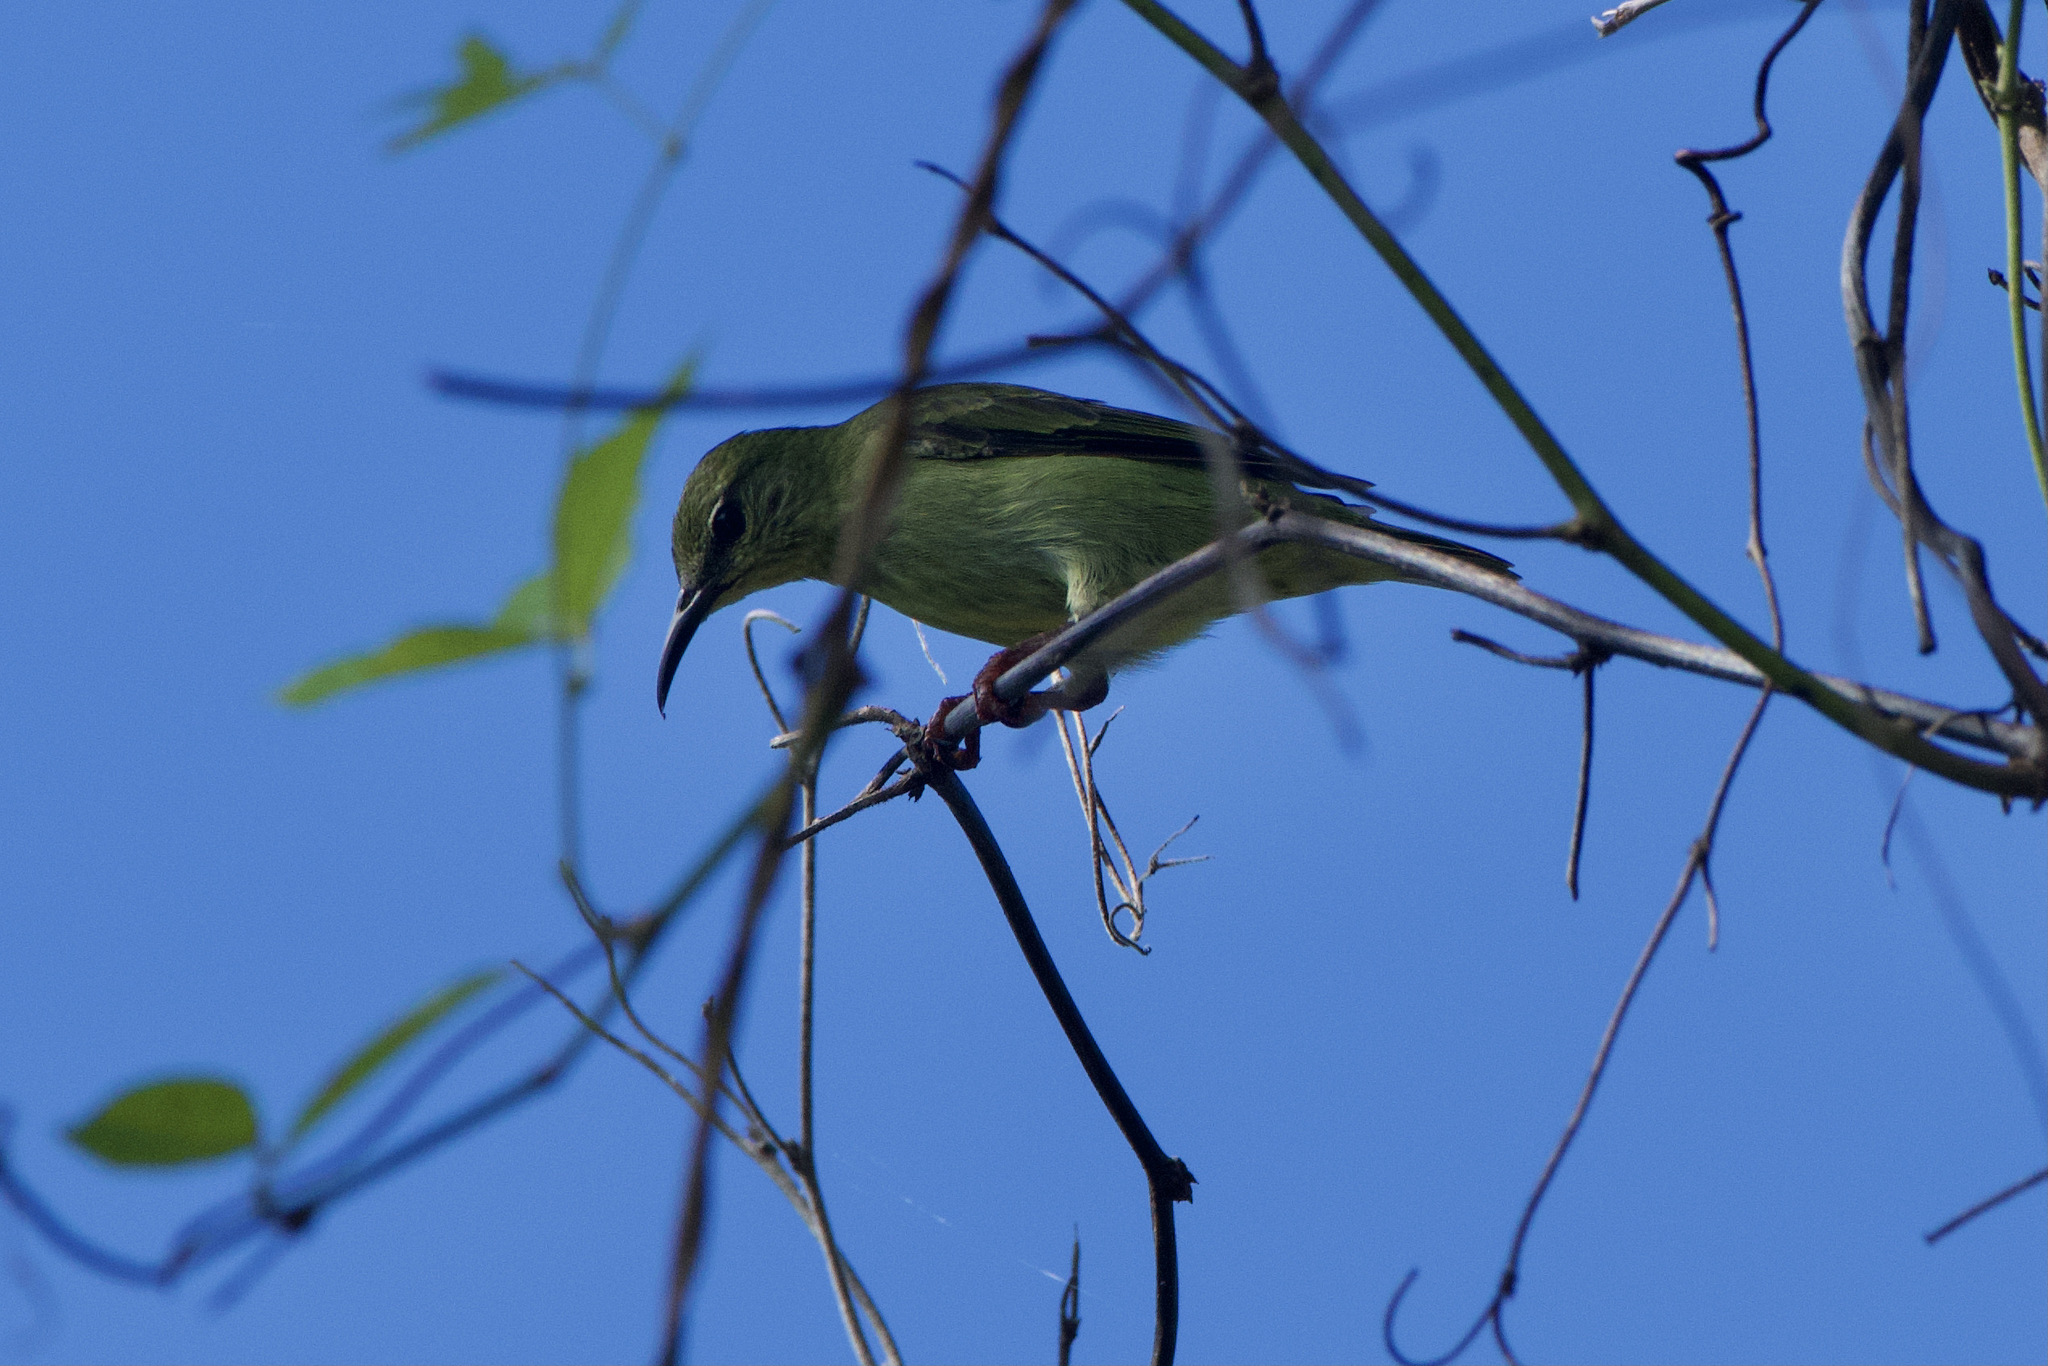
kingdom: Animalia
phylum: Chordata
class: Aves
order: Passeriformes
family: Thraupidae
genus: Cyanerpes
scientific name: Cyanerpes cyaneus
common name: Red-legged honeycreeper
